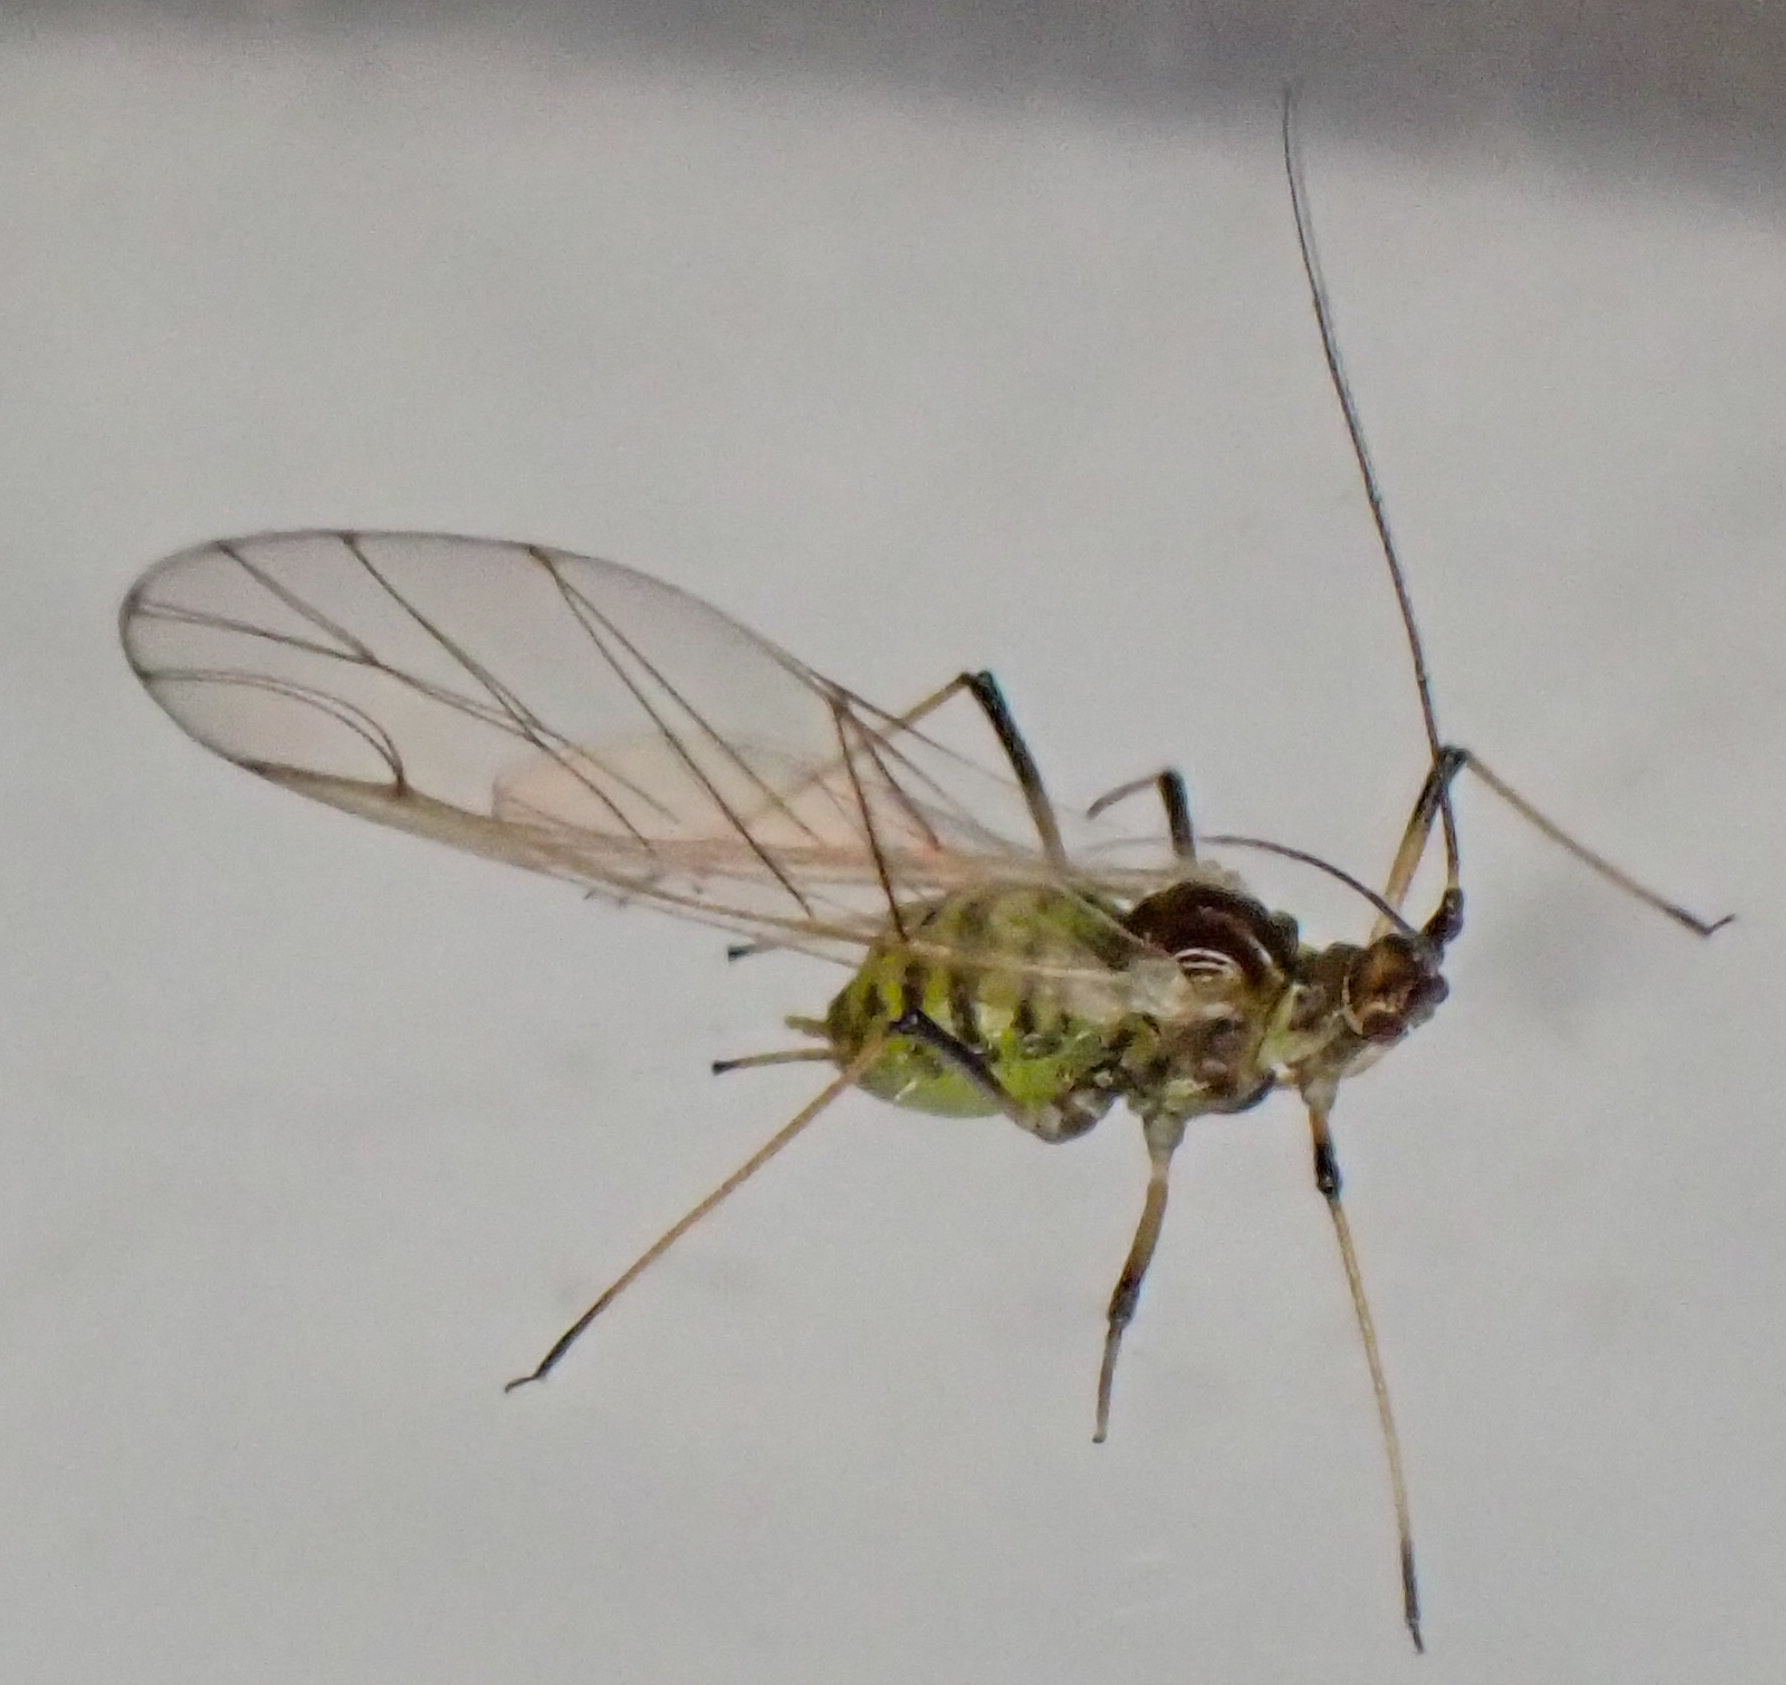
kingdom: Animalia
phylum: Arthropoda
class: Insecta
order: Hemiptera
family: Aphididae
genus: Aulacorthum
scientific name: Aulacorthum solani
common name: Foxglove aphid
